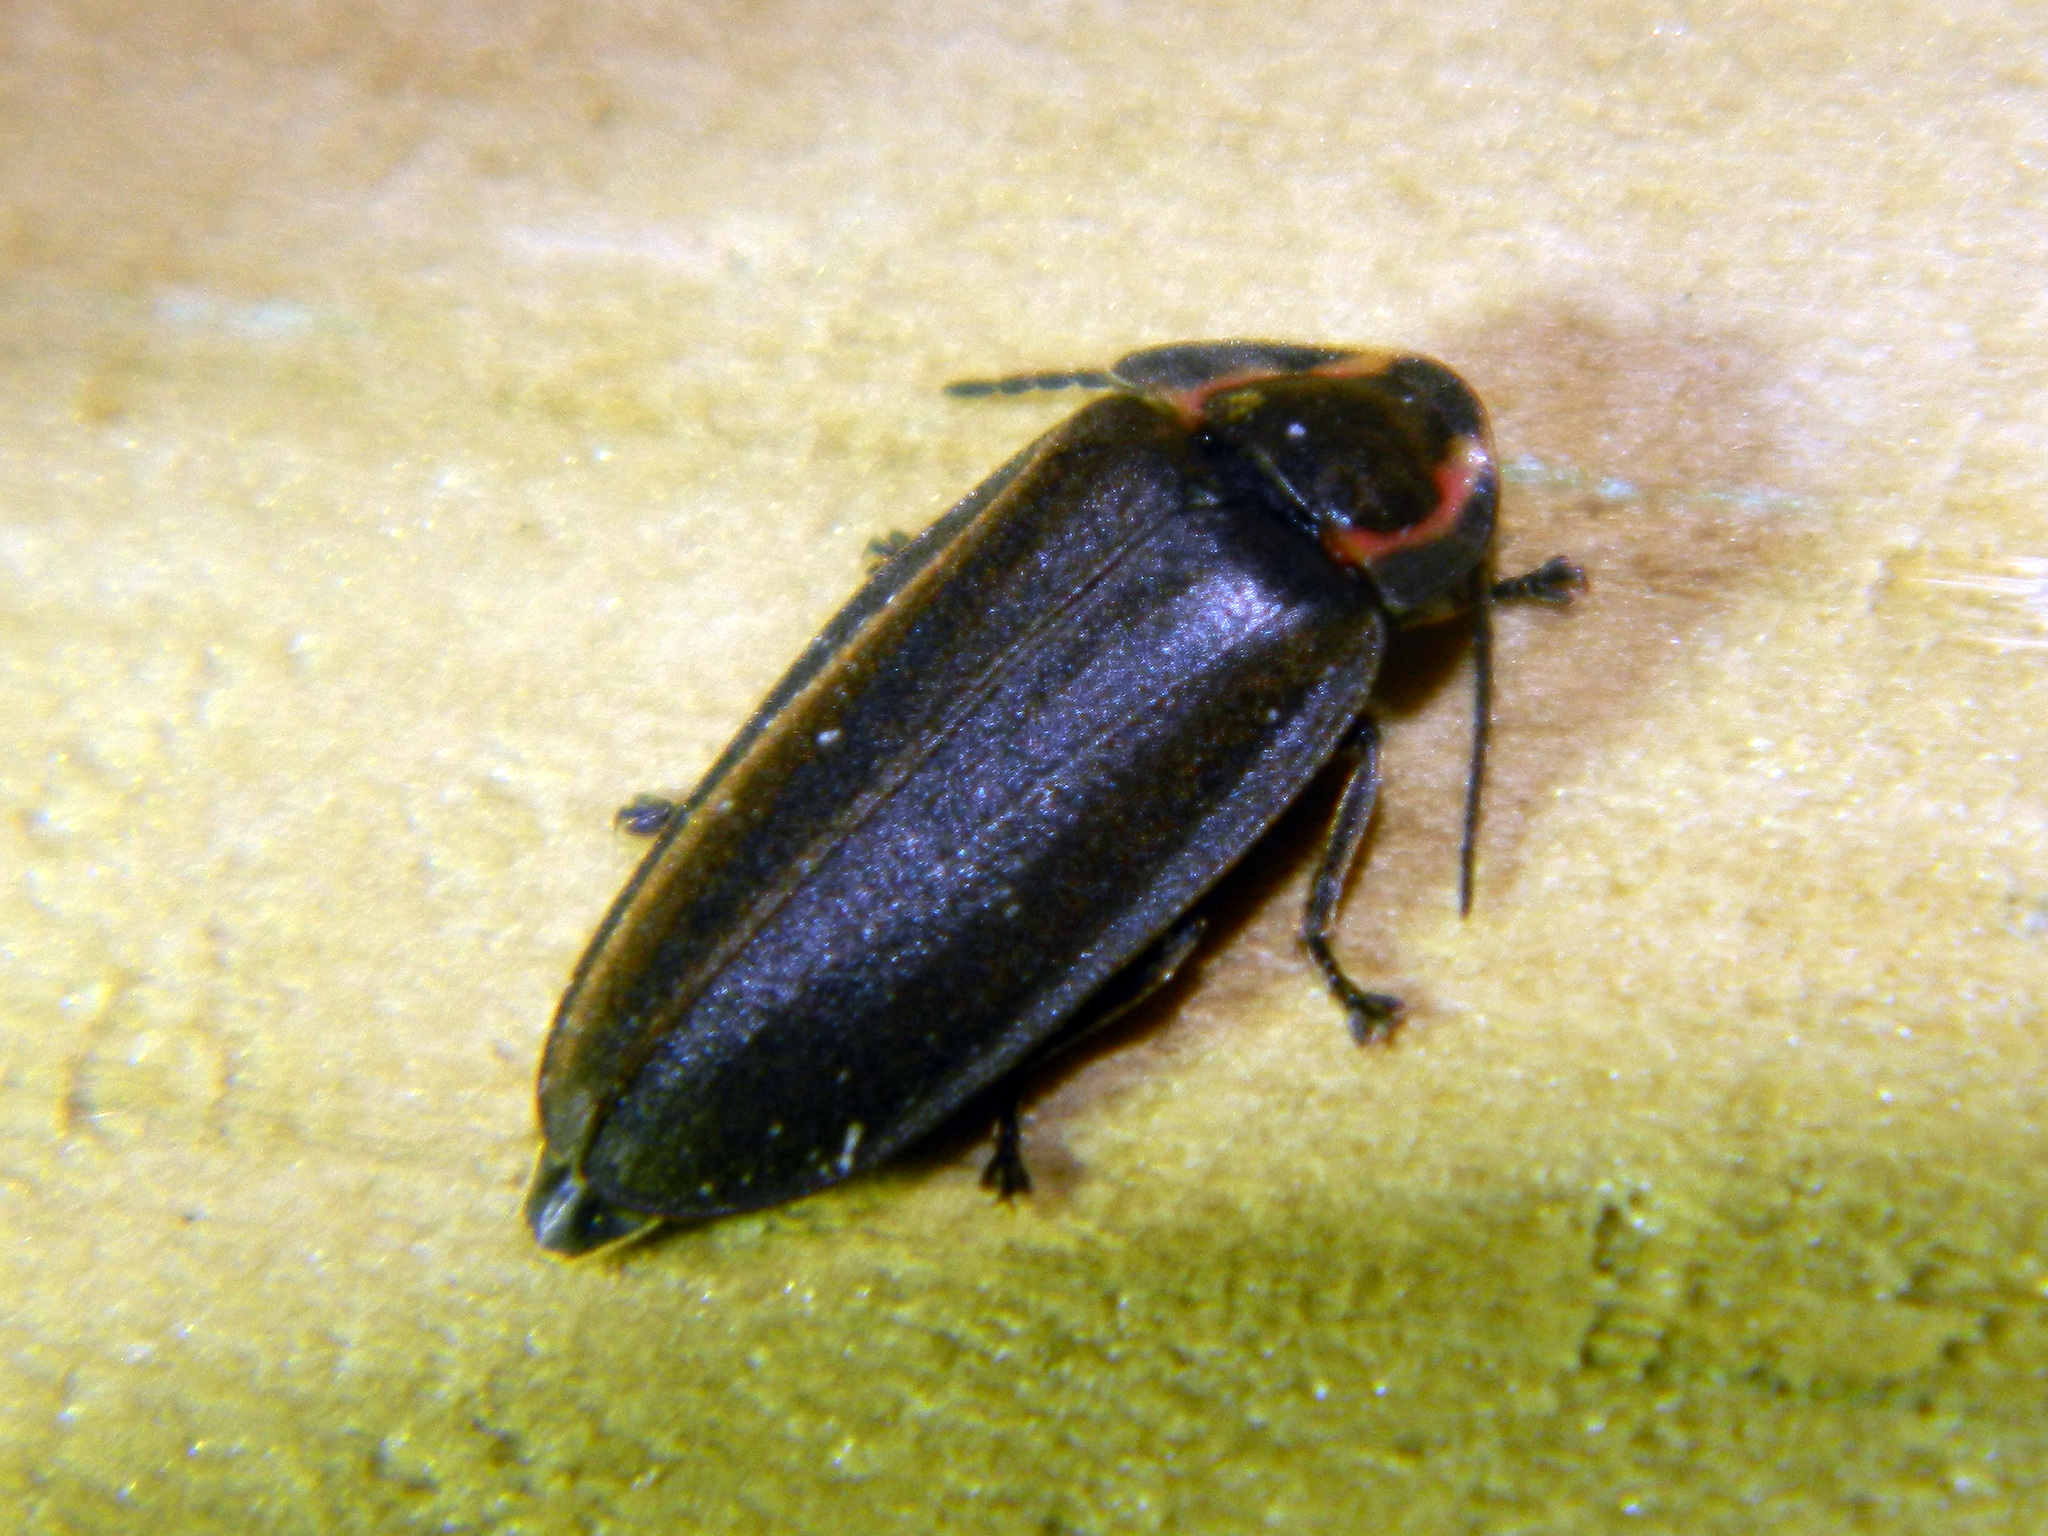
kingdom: Animalia
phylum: Arthropoda
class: Insecta
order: Coleoptera
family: Lampyridae
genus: Photinus
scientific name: Photinus corrusca
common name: Winter firefly
